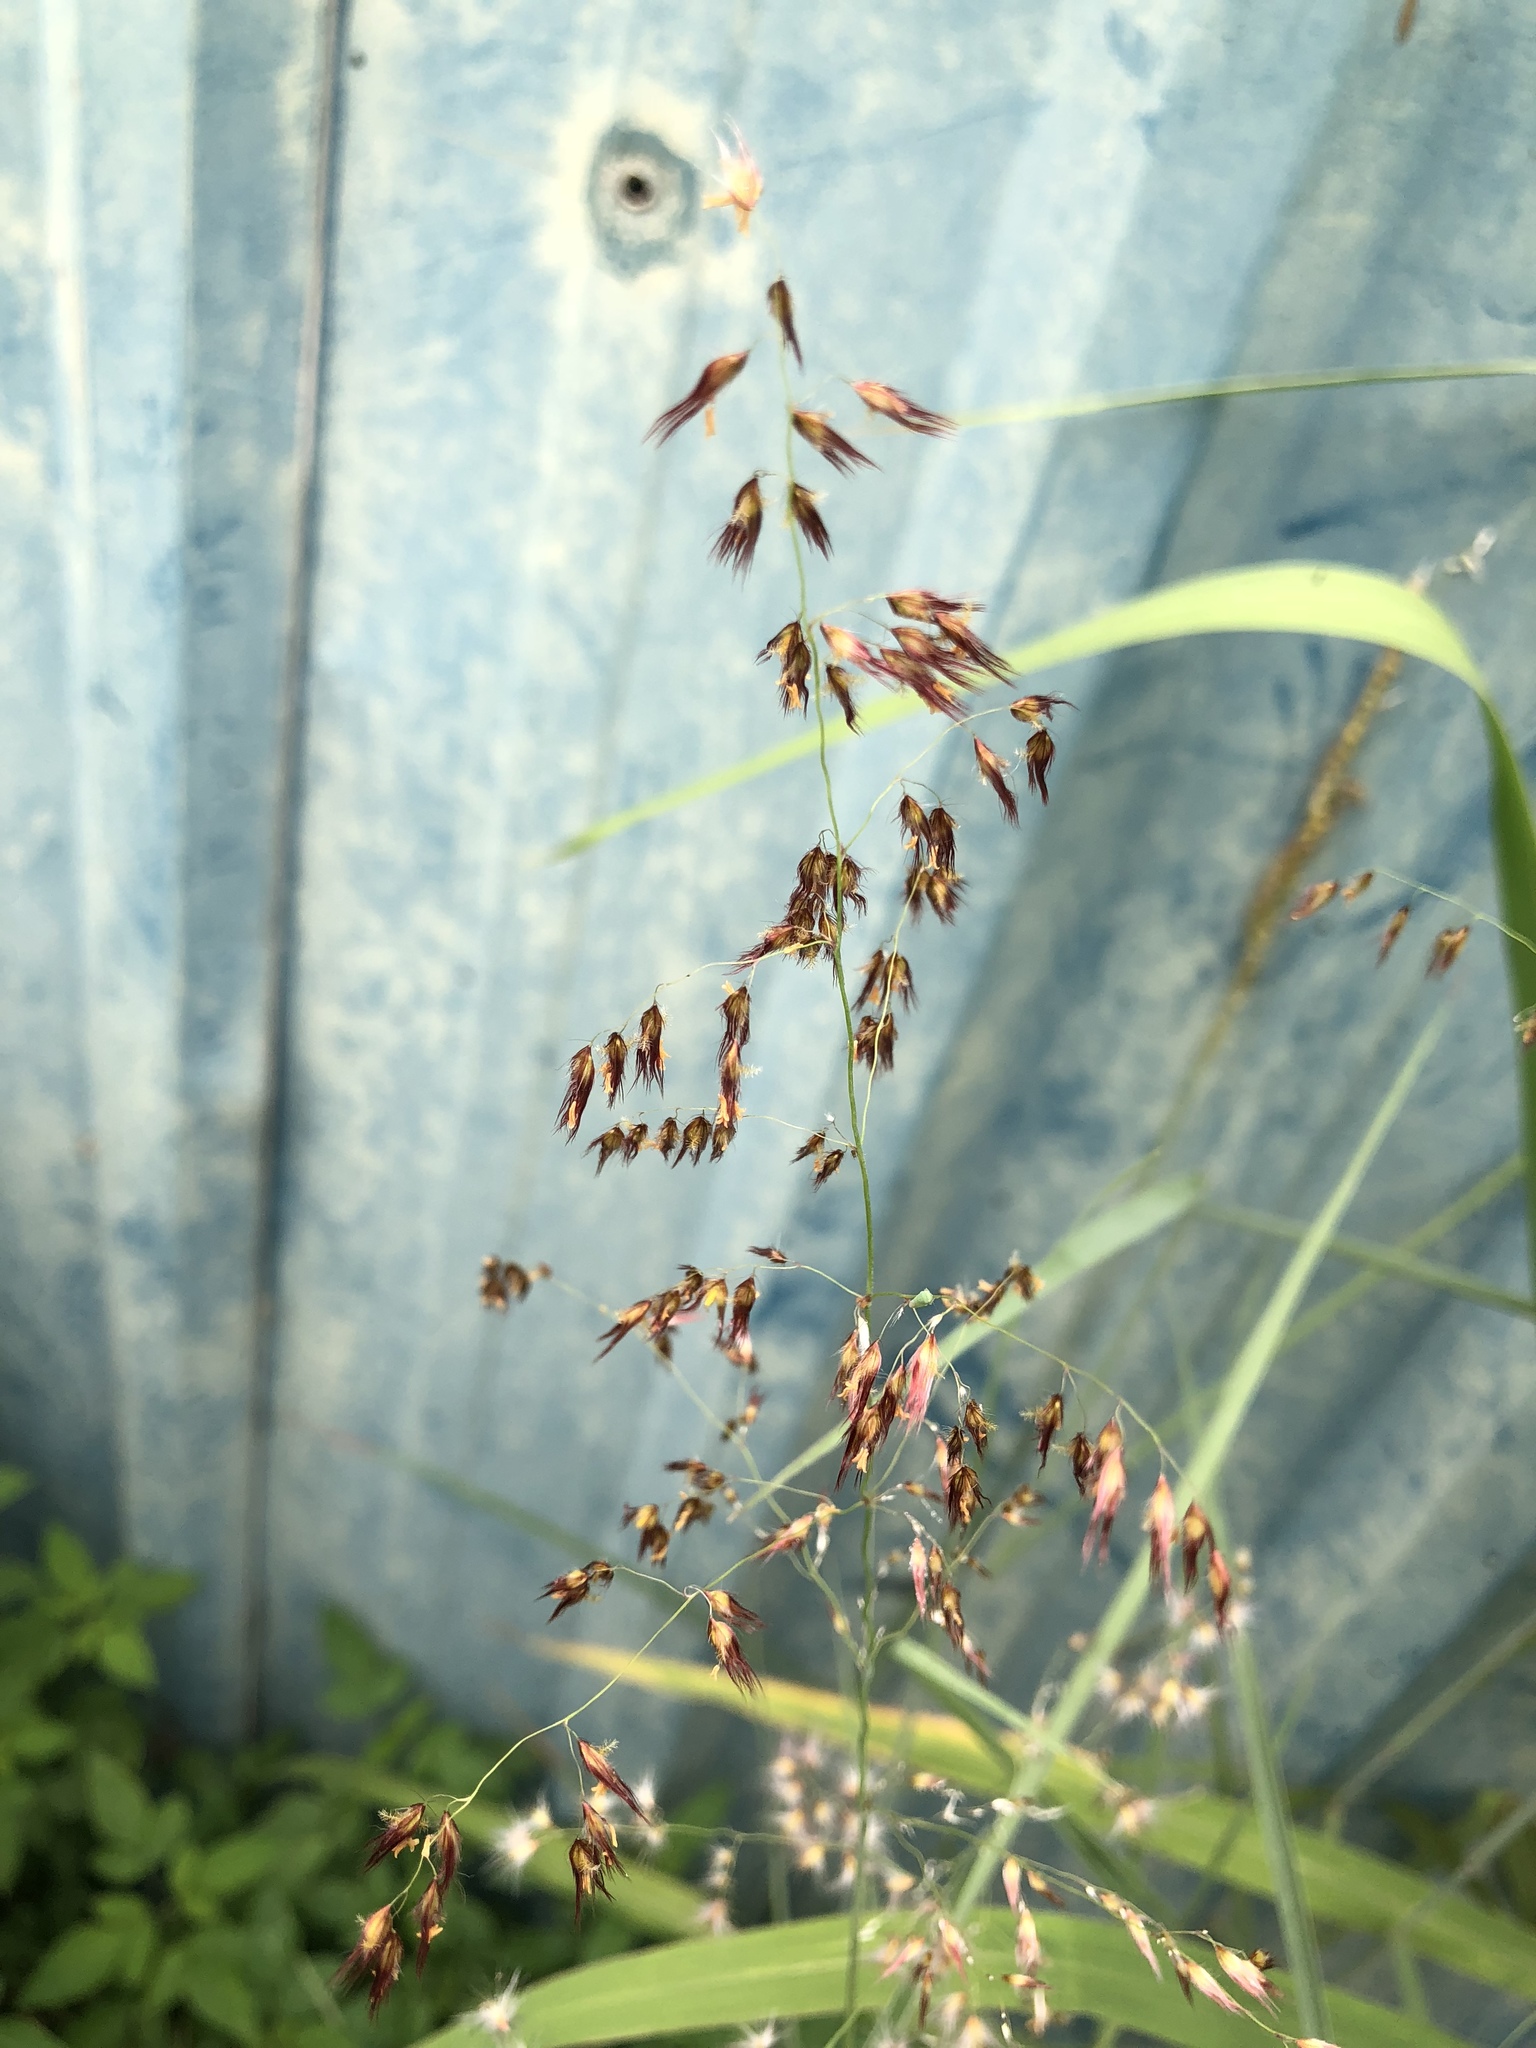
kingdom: Plantae
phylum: Tracheophyta
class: Liliopsida
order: Poales
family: Poaceae
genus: Melinis
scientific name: Melinis repens
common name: Rose natal grass
